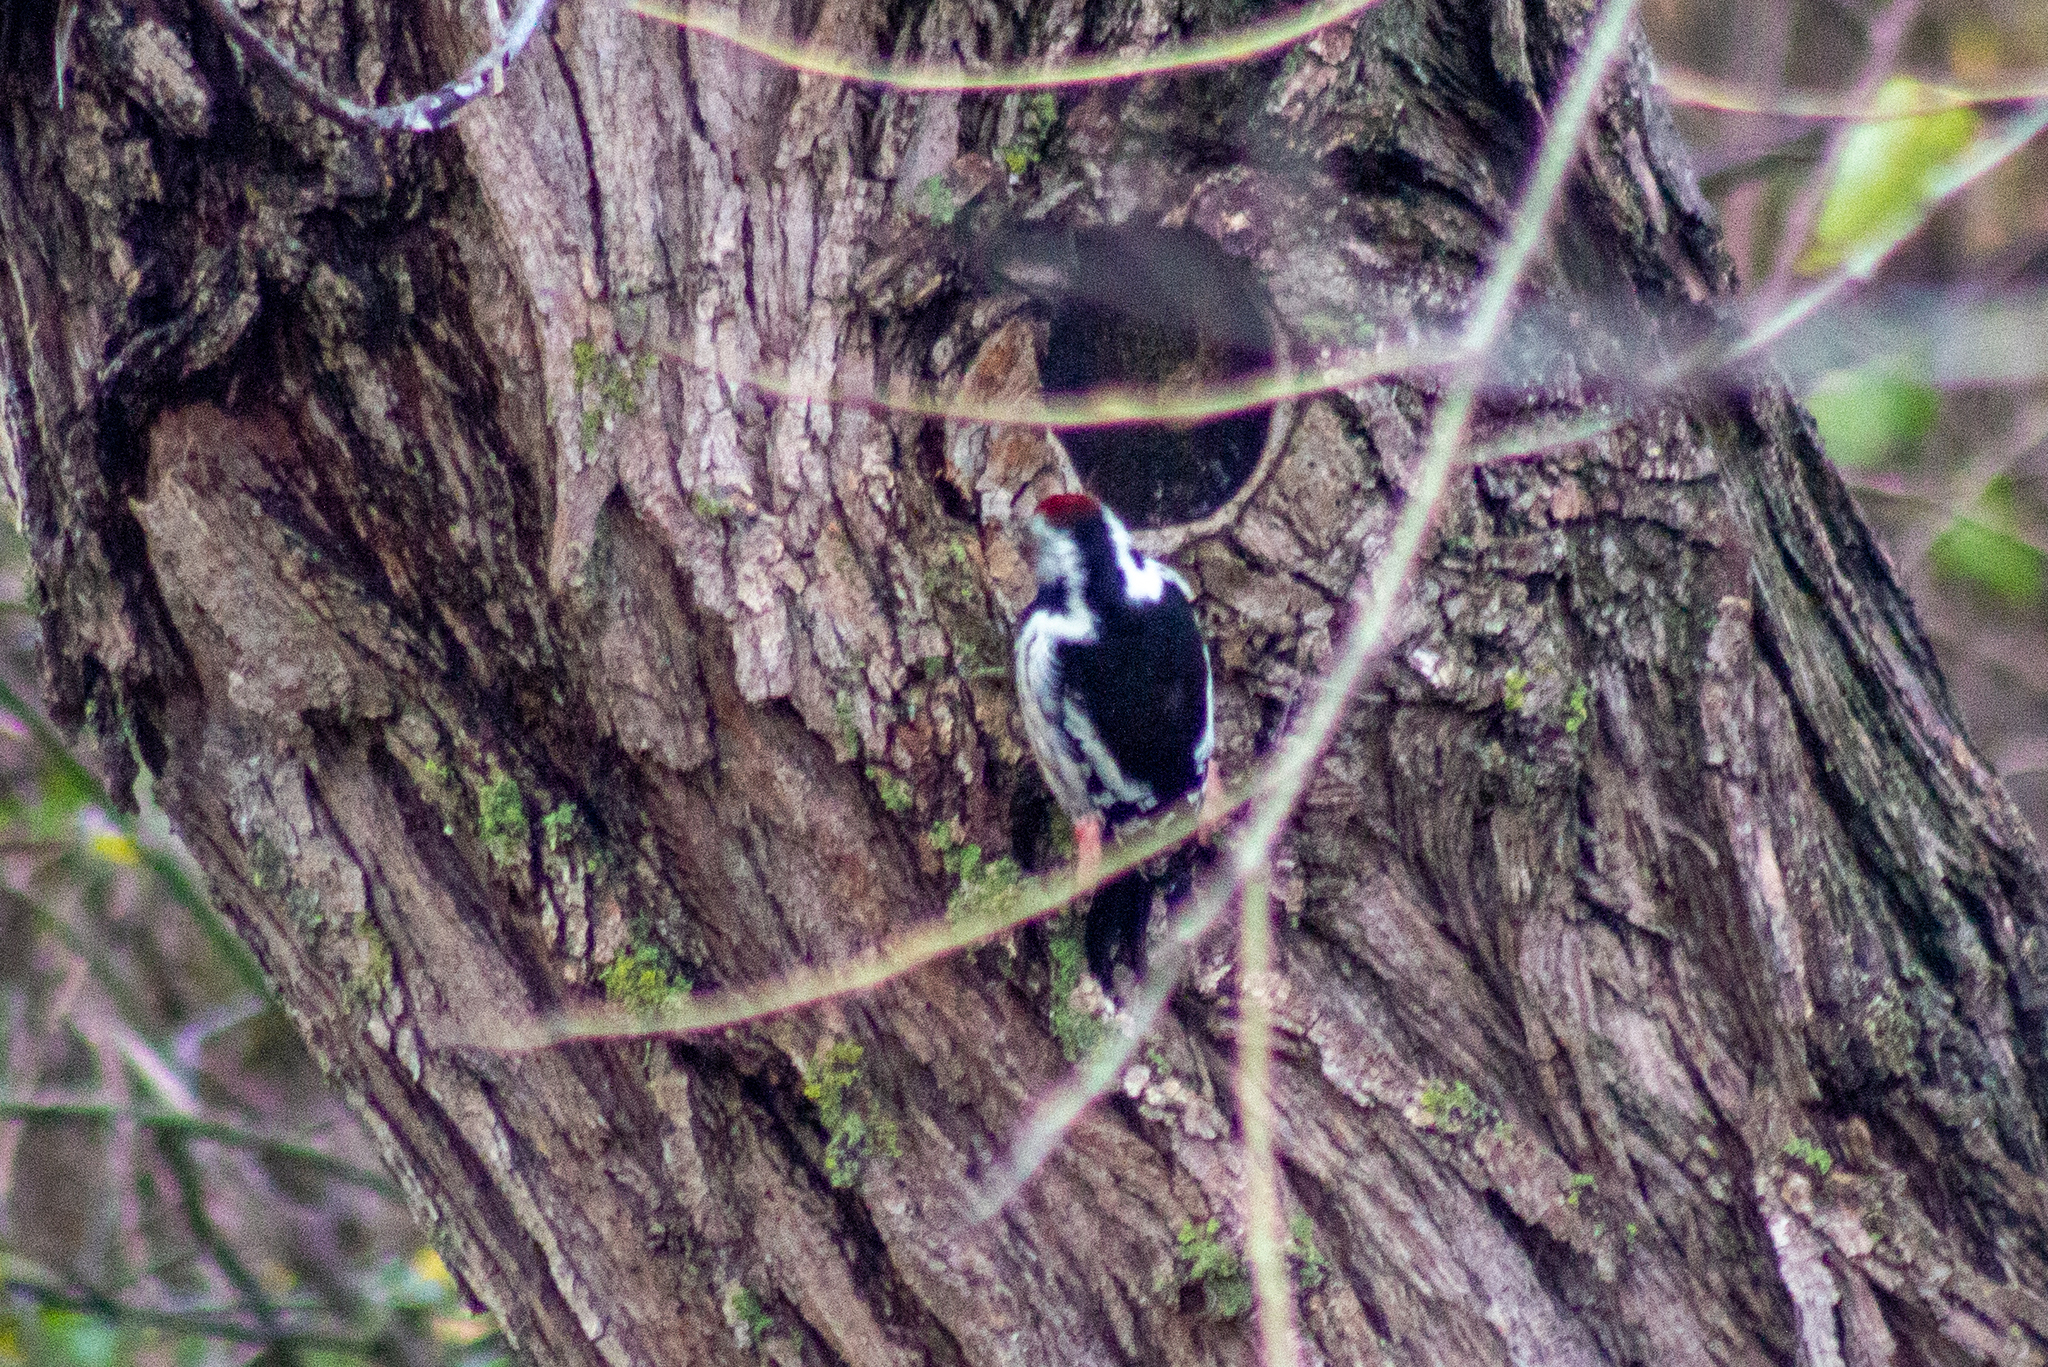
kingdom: Animalia
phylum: Chordata
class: Aves
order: Piciformes
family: Picidae
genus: Dendrocoptes
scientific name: Dendrocoptes medius
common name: Middle spotted woodpecker
